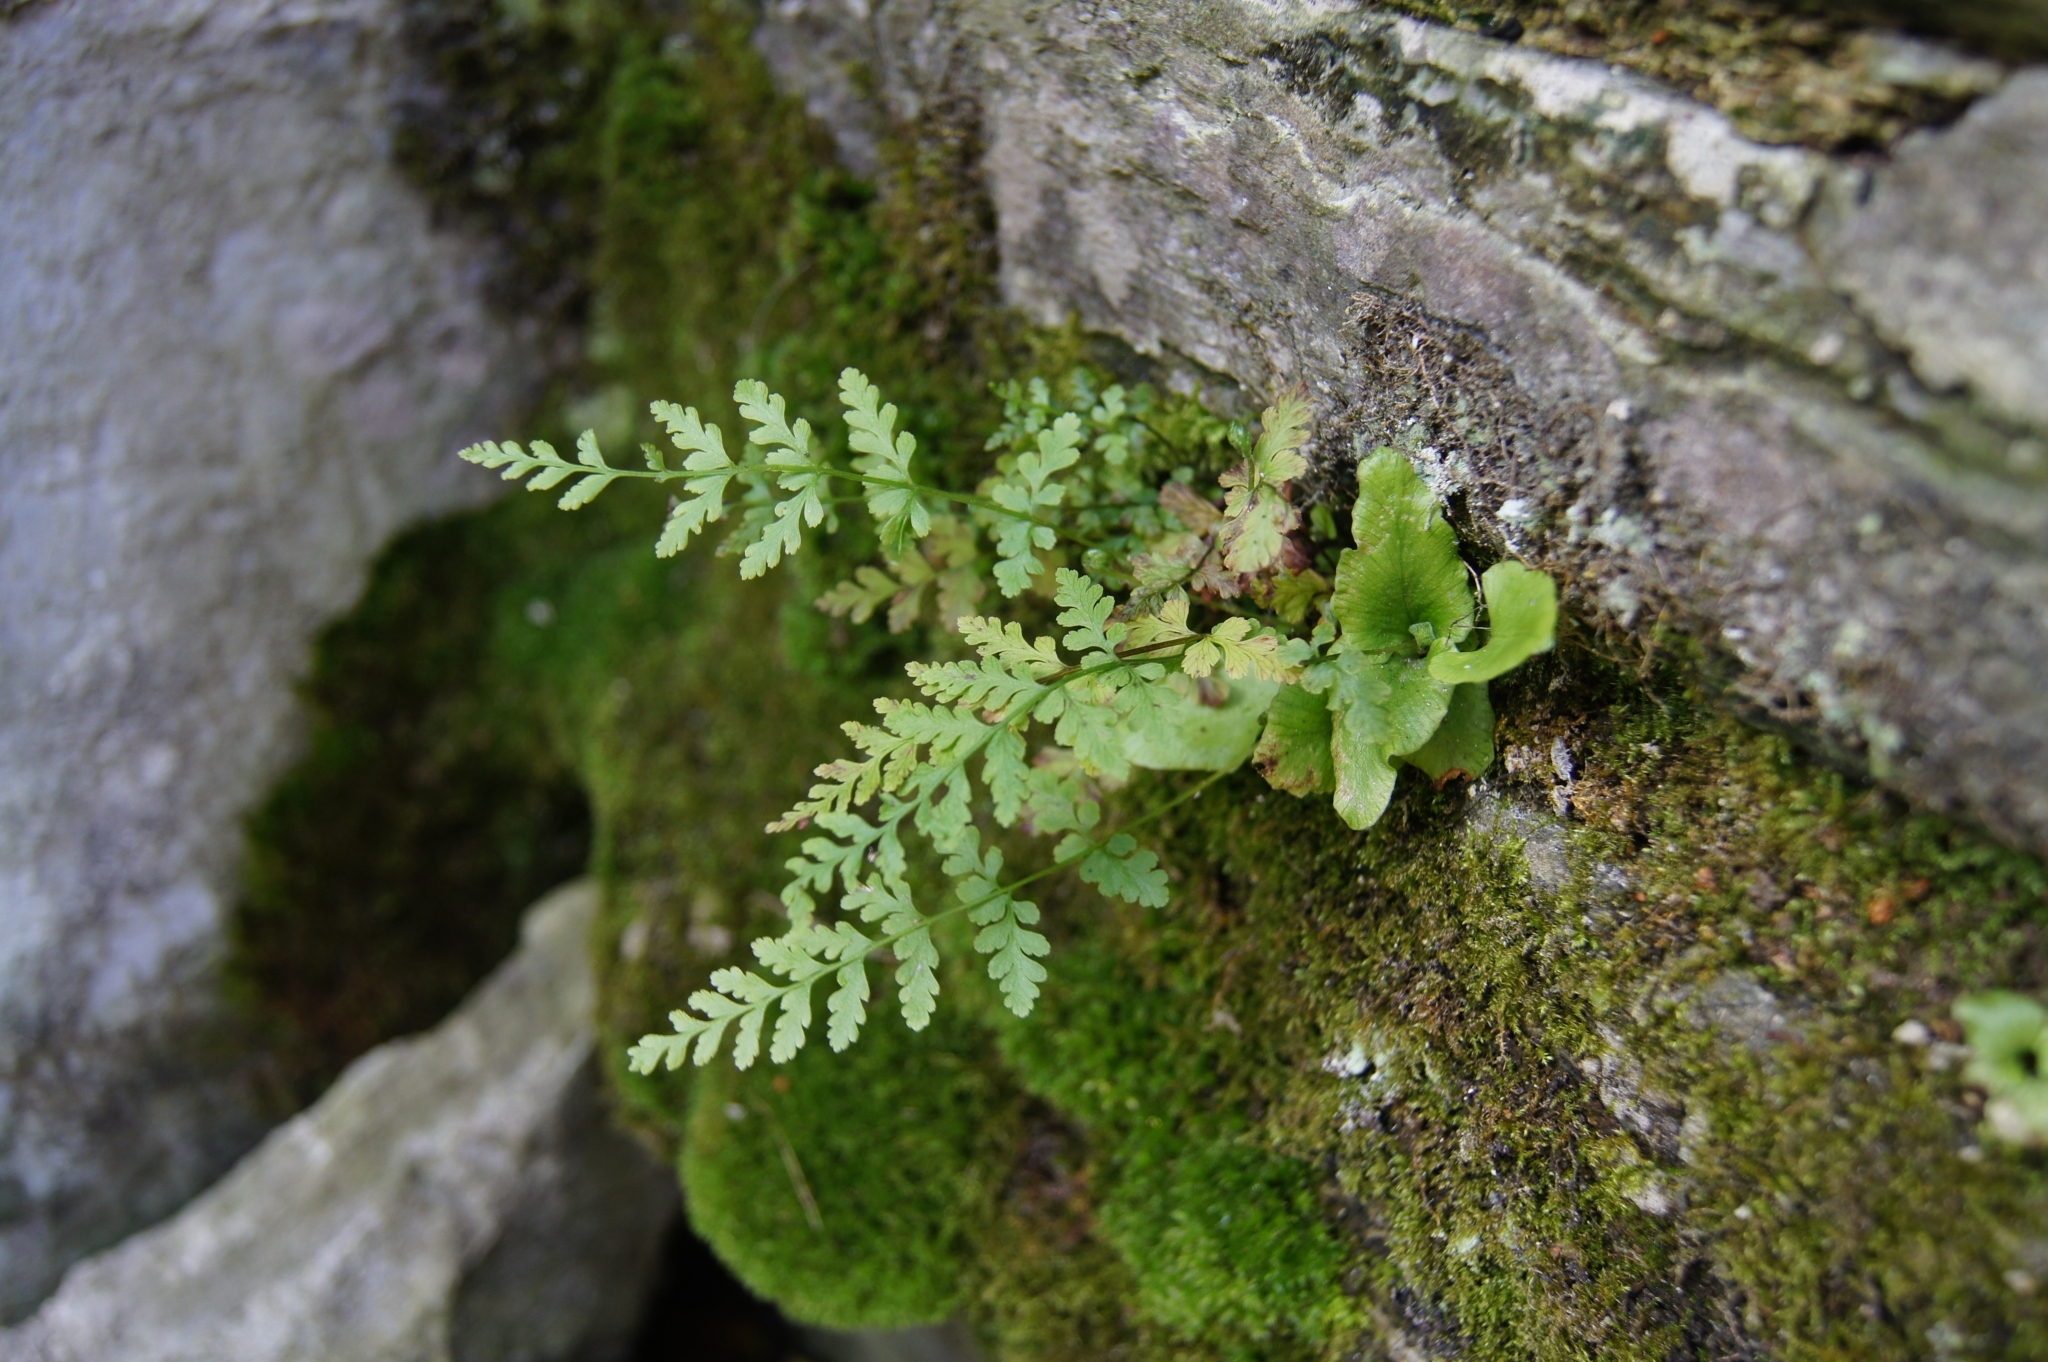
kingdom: Plantae
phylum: Tracheophyta
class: Polypodiopsida
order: Polypodiales
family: Cystopteridaceae
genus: Cystopteris
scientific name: Cystopteris fragilis
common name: Brittle bladder fern
